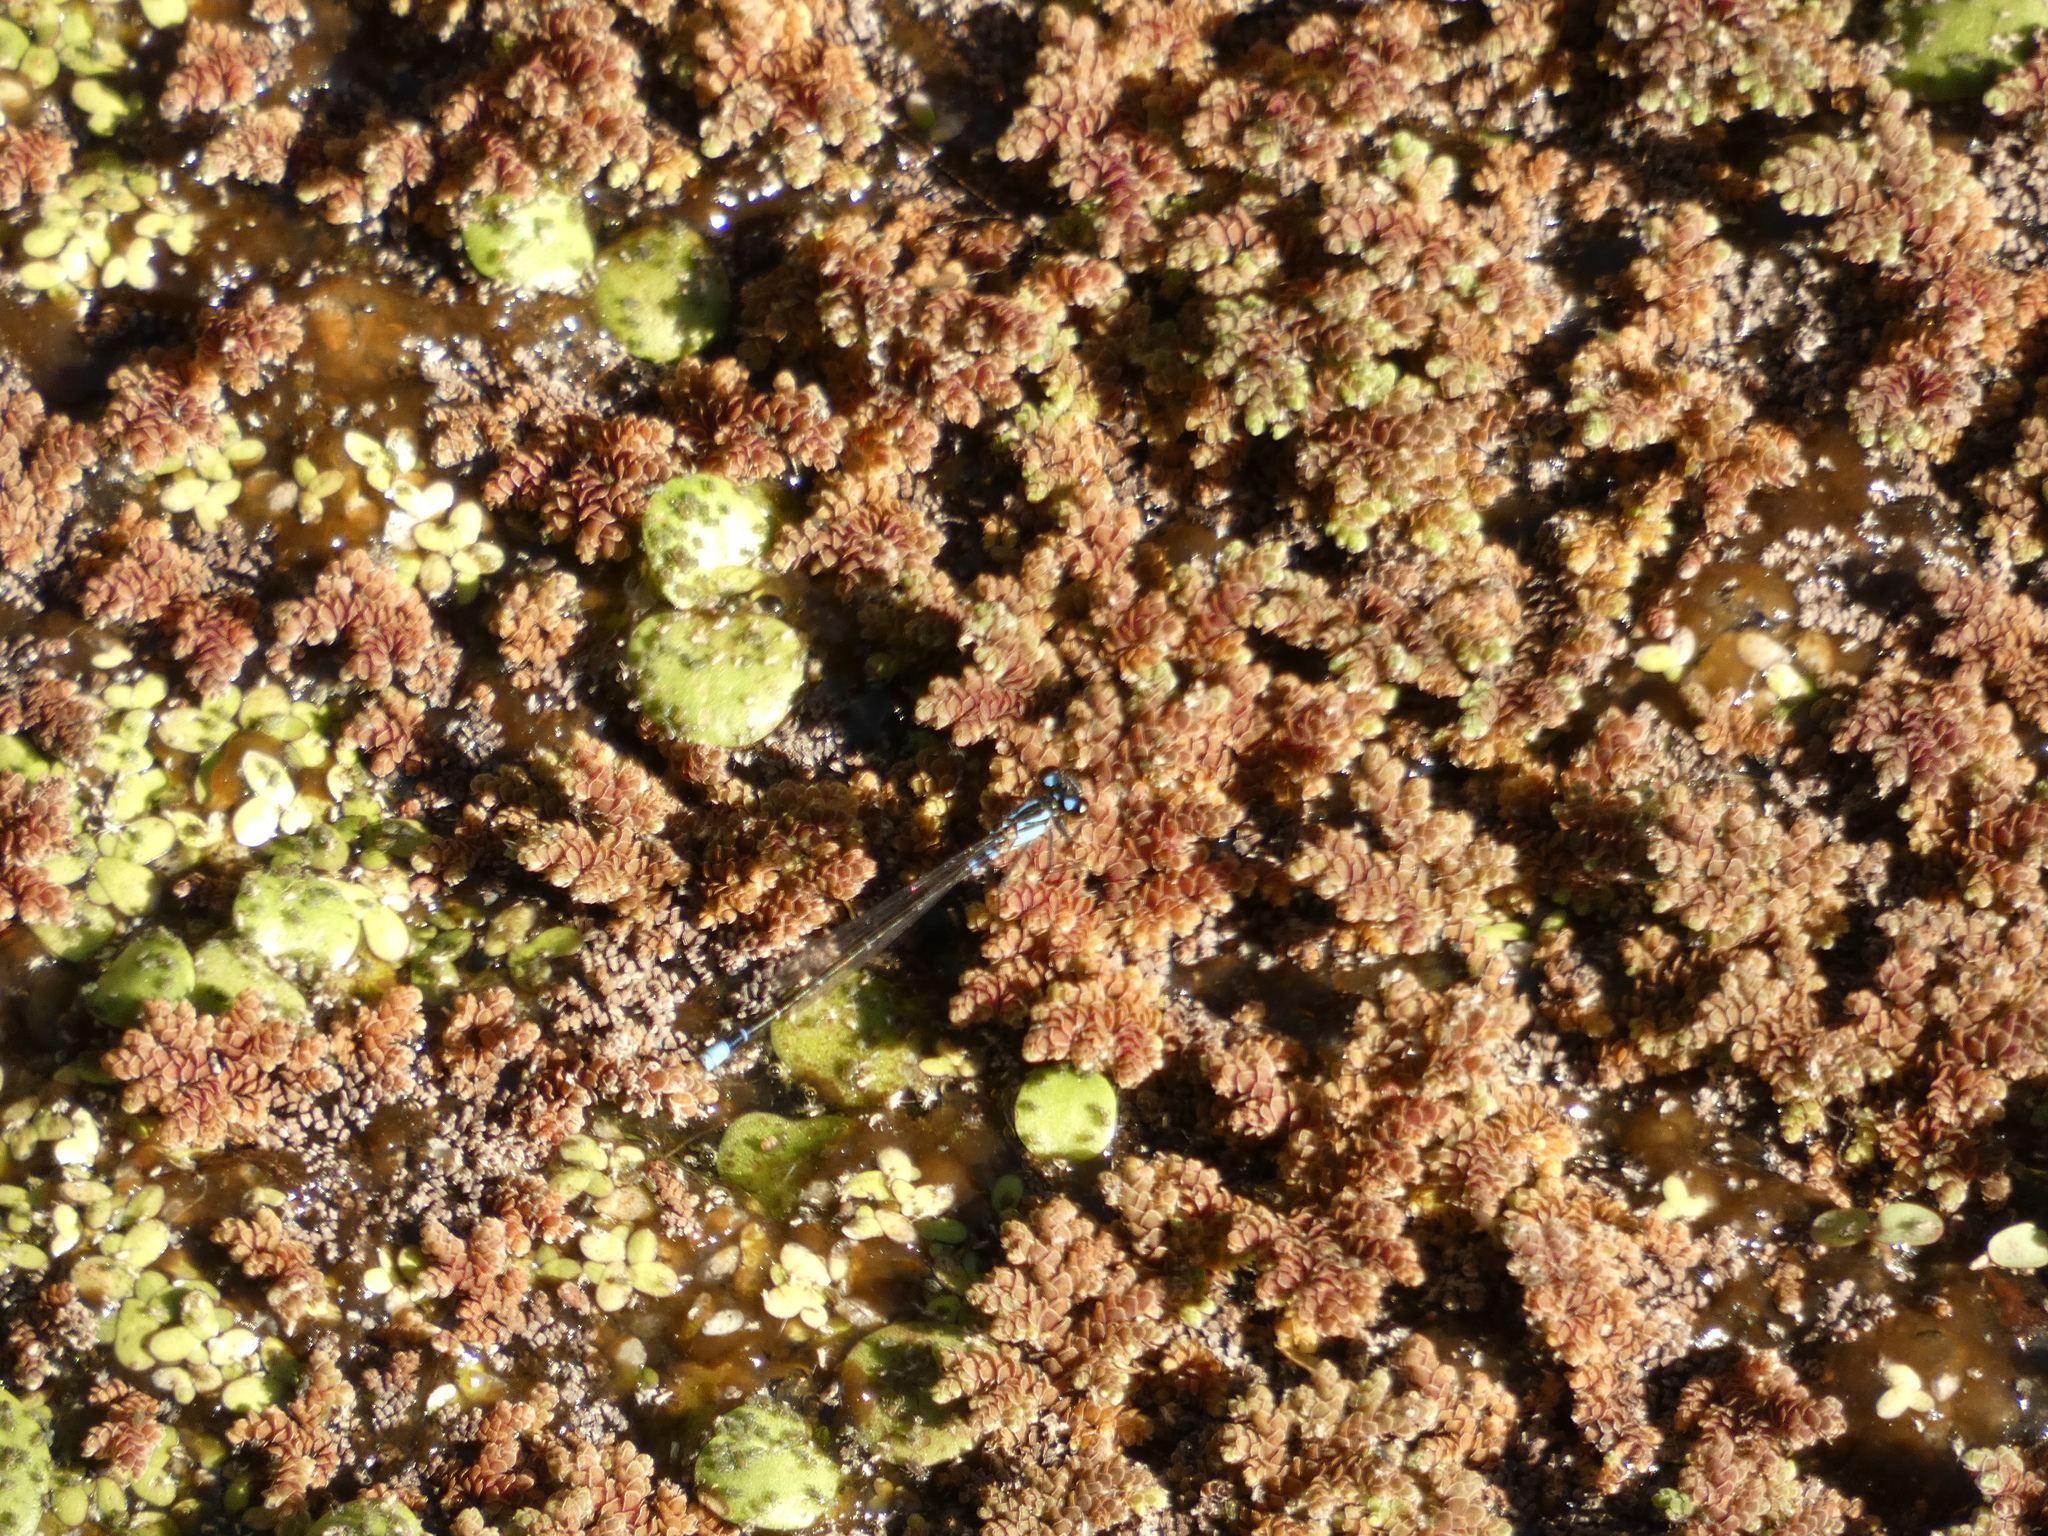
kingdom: Animalia
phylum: Arthropoda
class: Insecta
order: Odonata
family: Coenagrionidae
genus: Cyanallagma
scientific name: Cyanallagma interruptum
